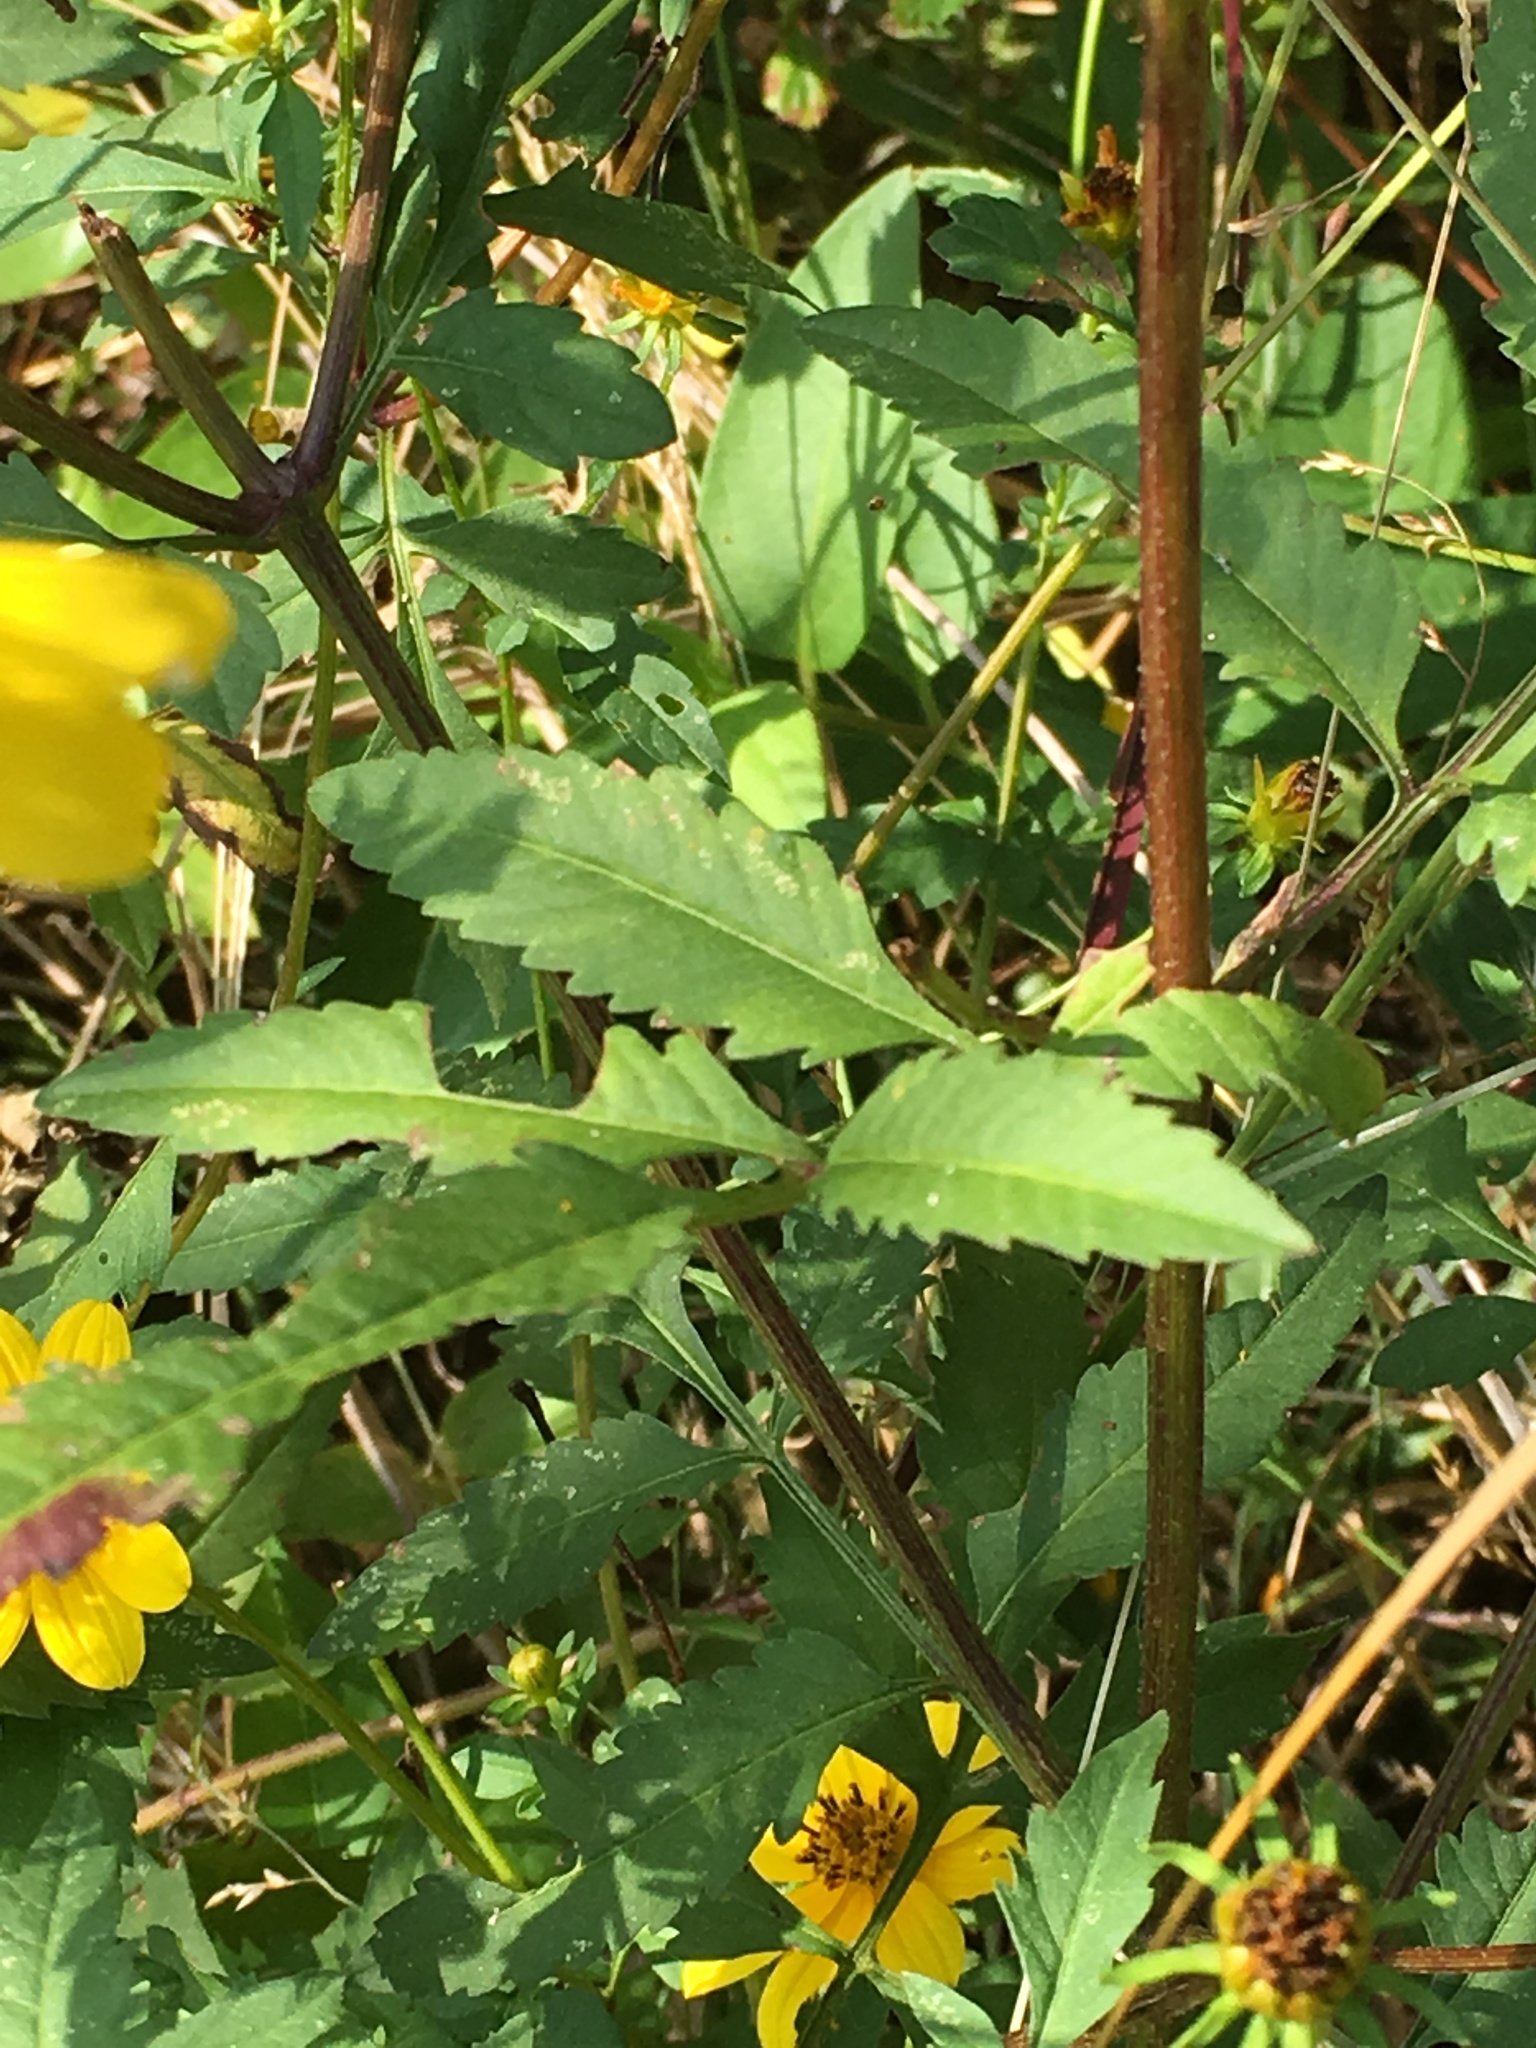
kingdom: Plantae
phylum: Tracheophyta
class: Magnoliopsida
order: Asterales
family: Asteraceae
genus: Bidens
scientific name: Bidens aristosa
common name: Western tickseed
